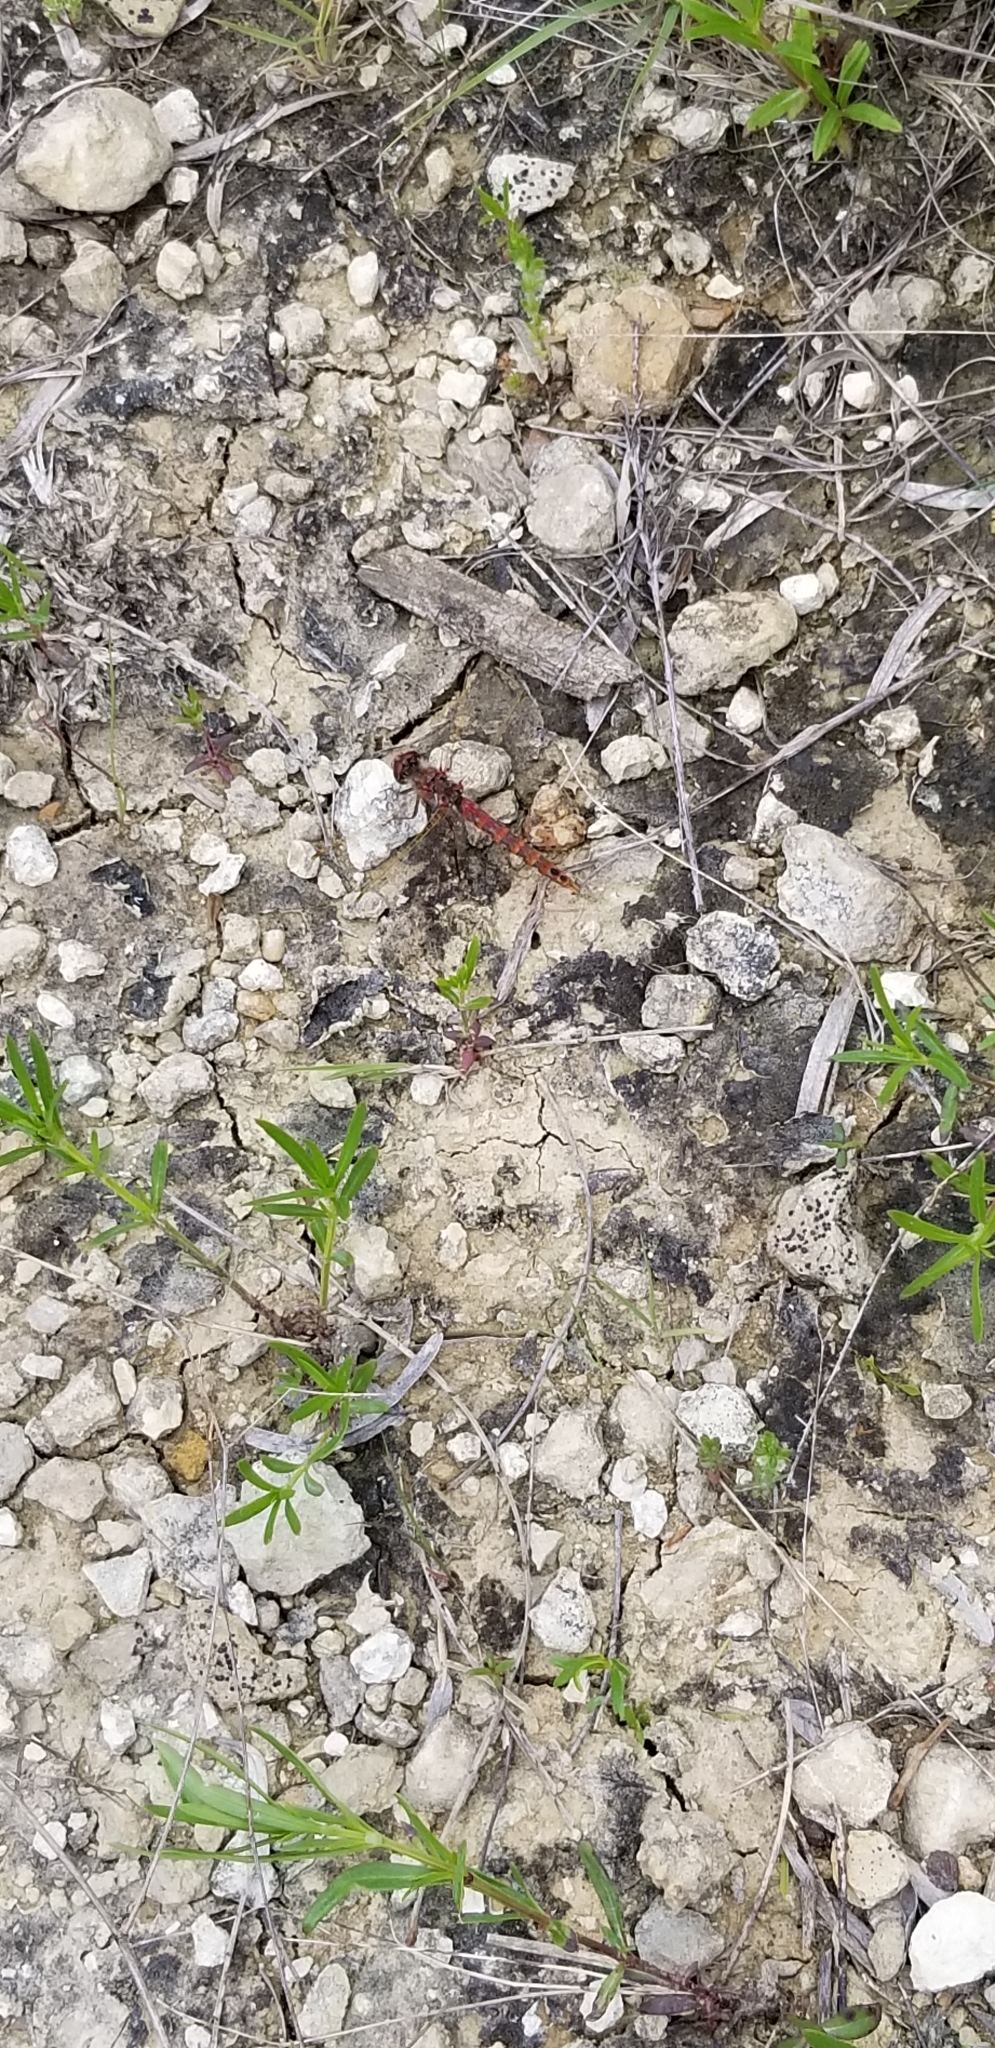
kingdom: Animalia
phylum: Arthropoda
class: Insecta
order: Odonata
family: Libellulidae
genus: Sympetrum
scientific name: Sympetrum corruptum
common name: Variegated meadowhawk
